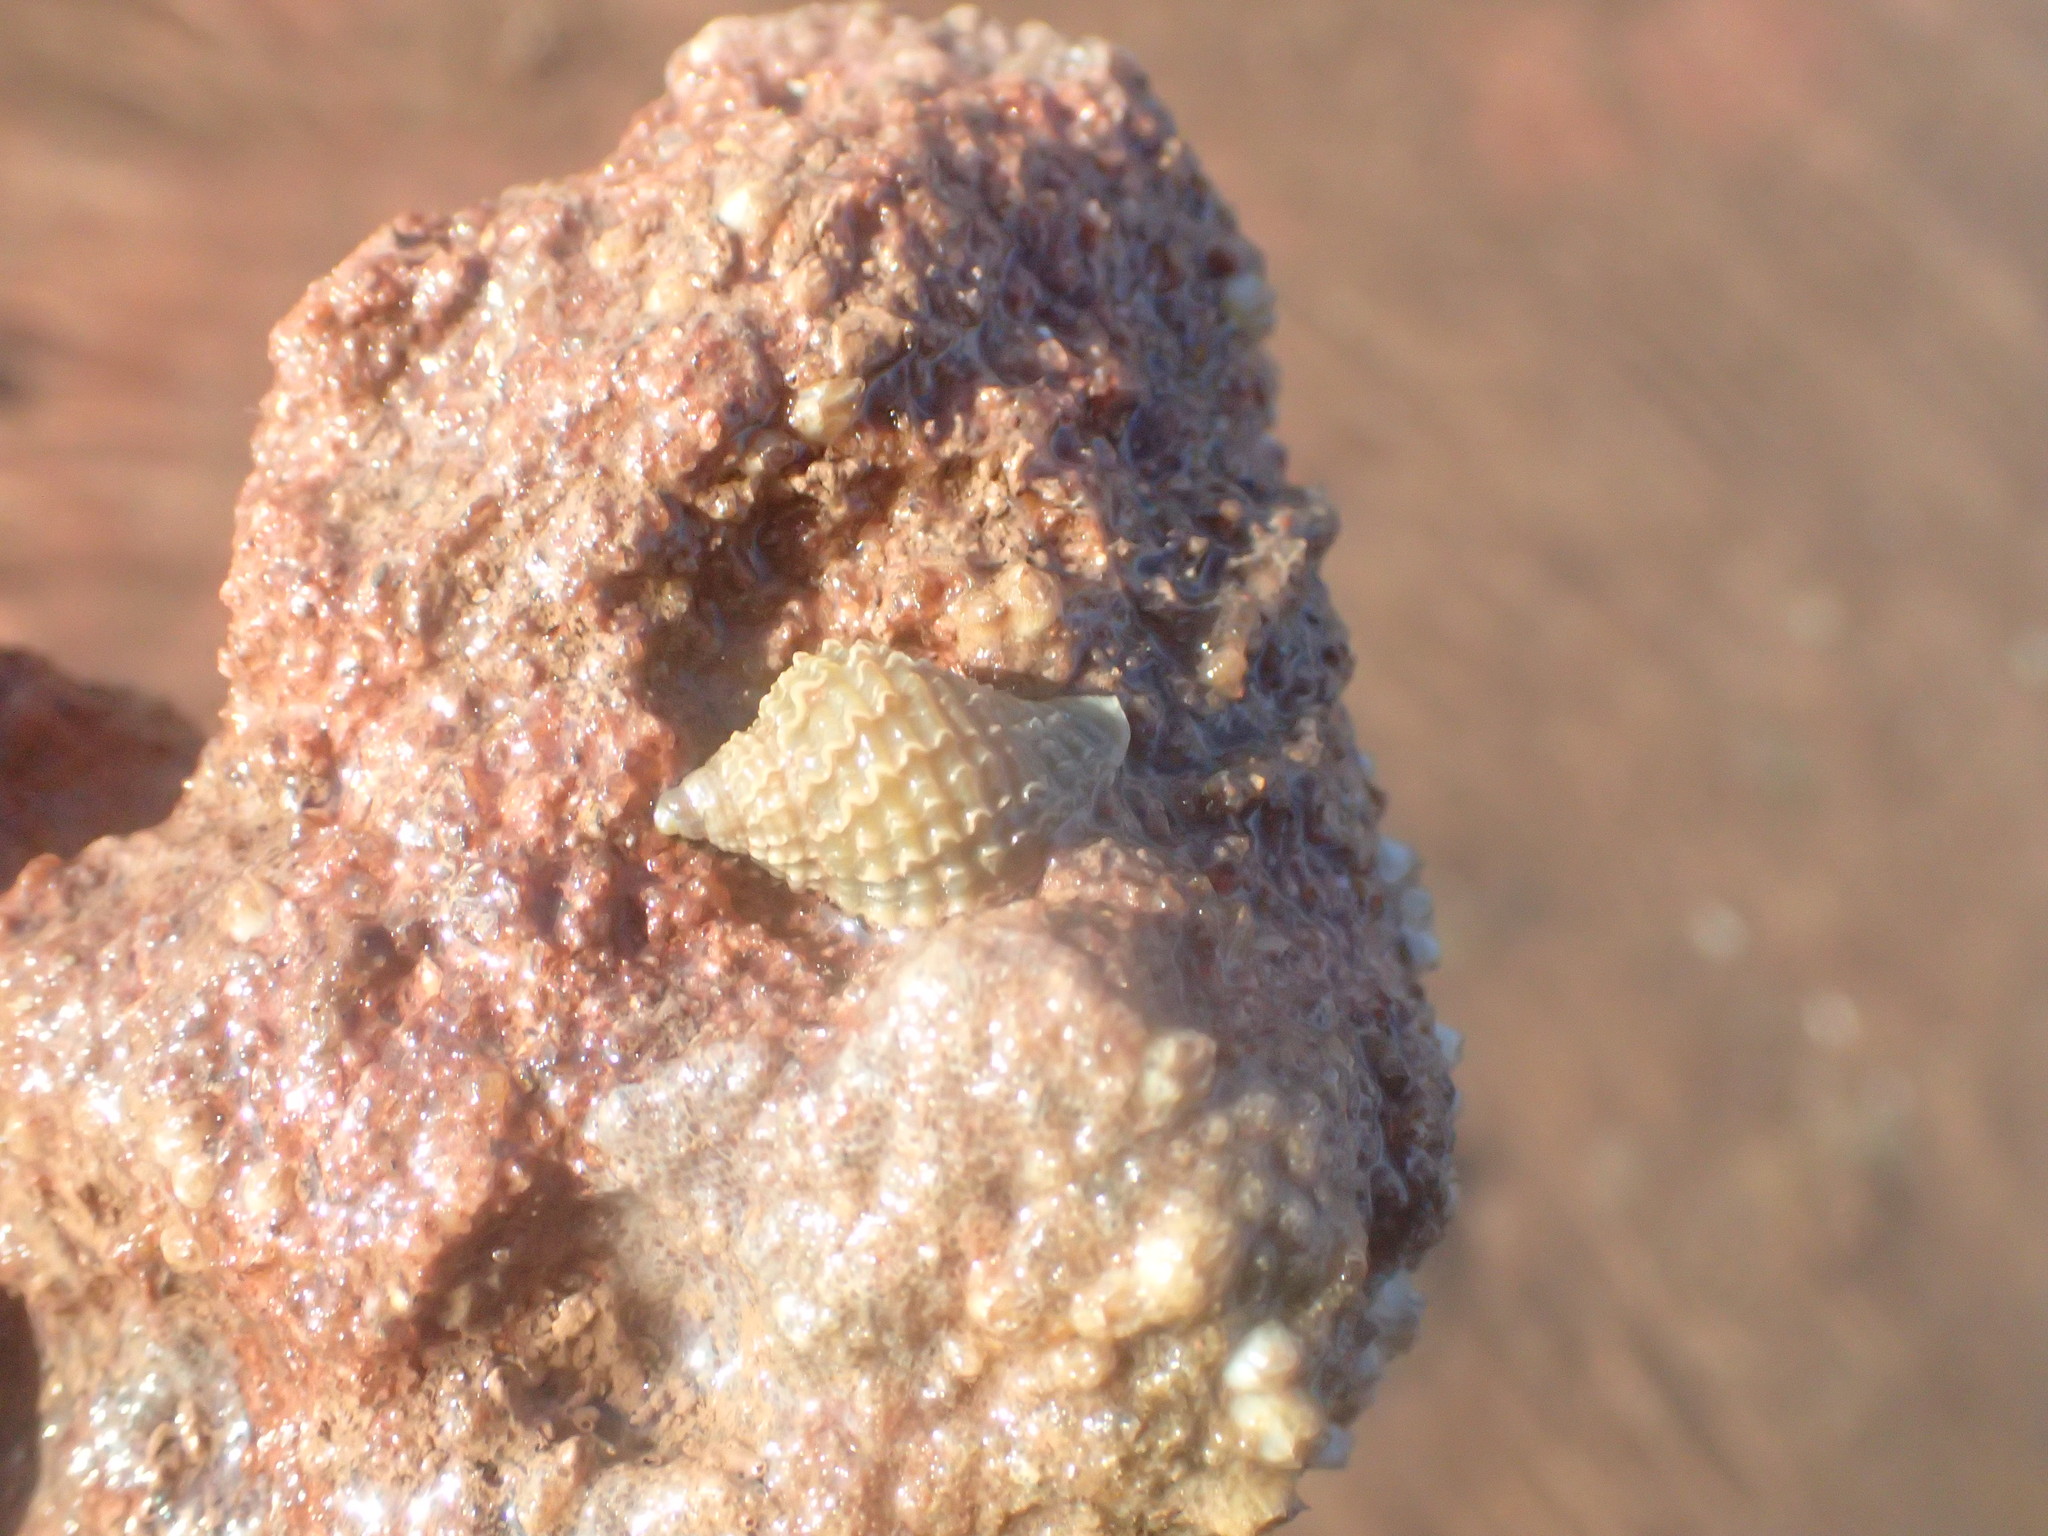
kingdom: Animalia
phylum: Mollusca
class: Gastropoda
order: Neogastropoda
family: Muricidae
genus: Nucella
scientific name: Nucella lapillus
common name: Dog whelk
